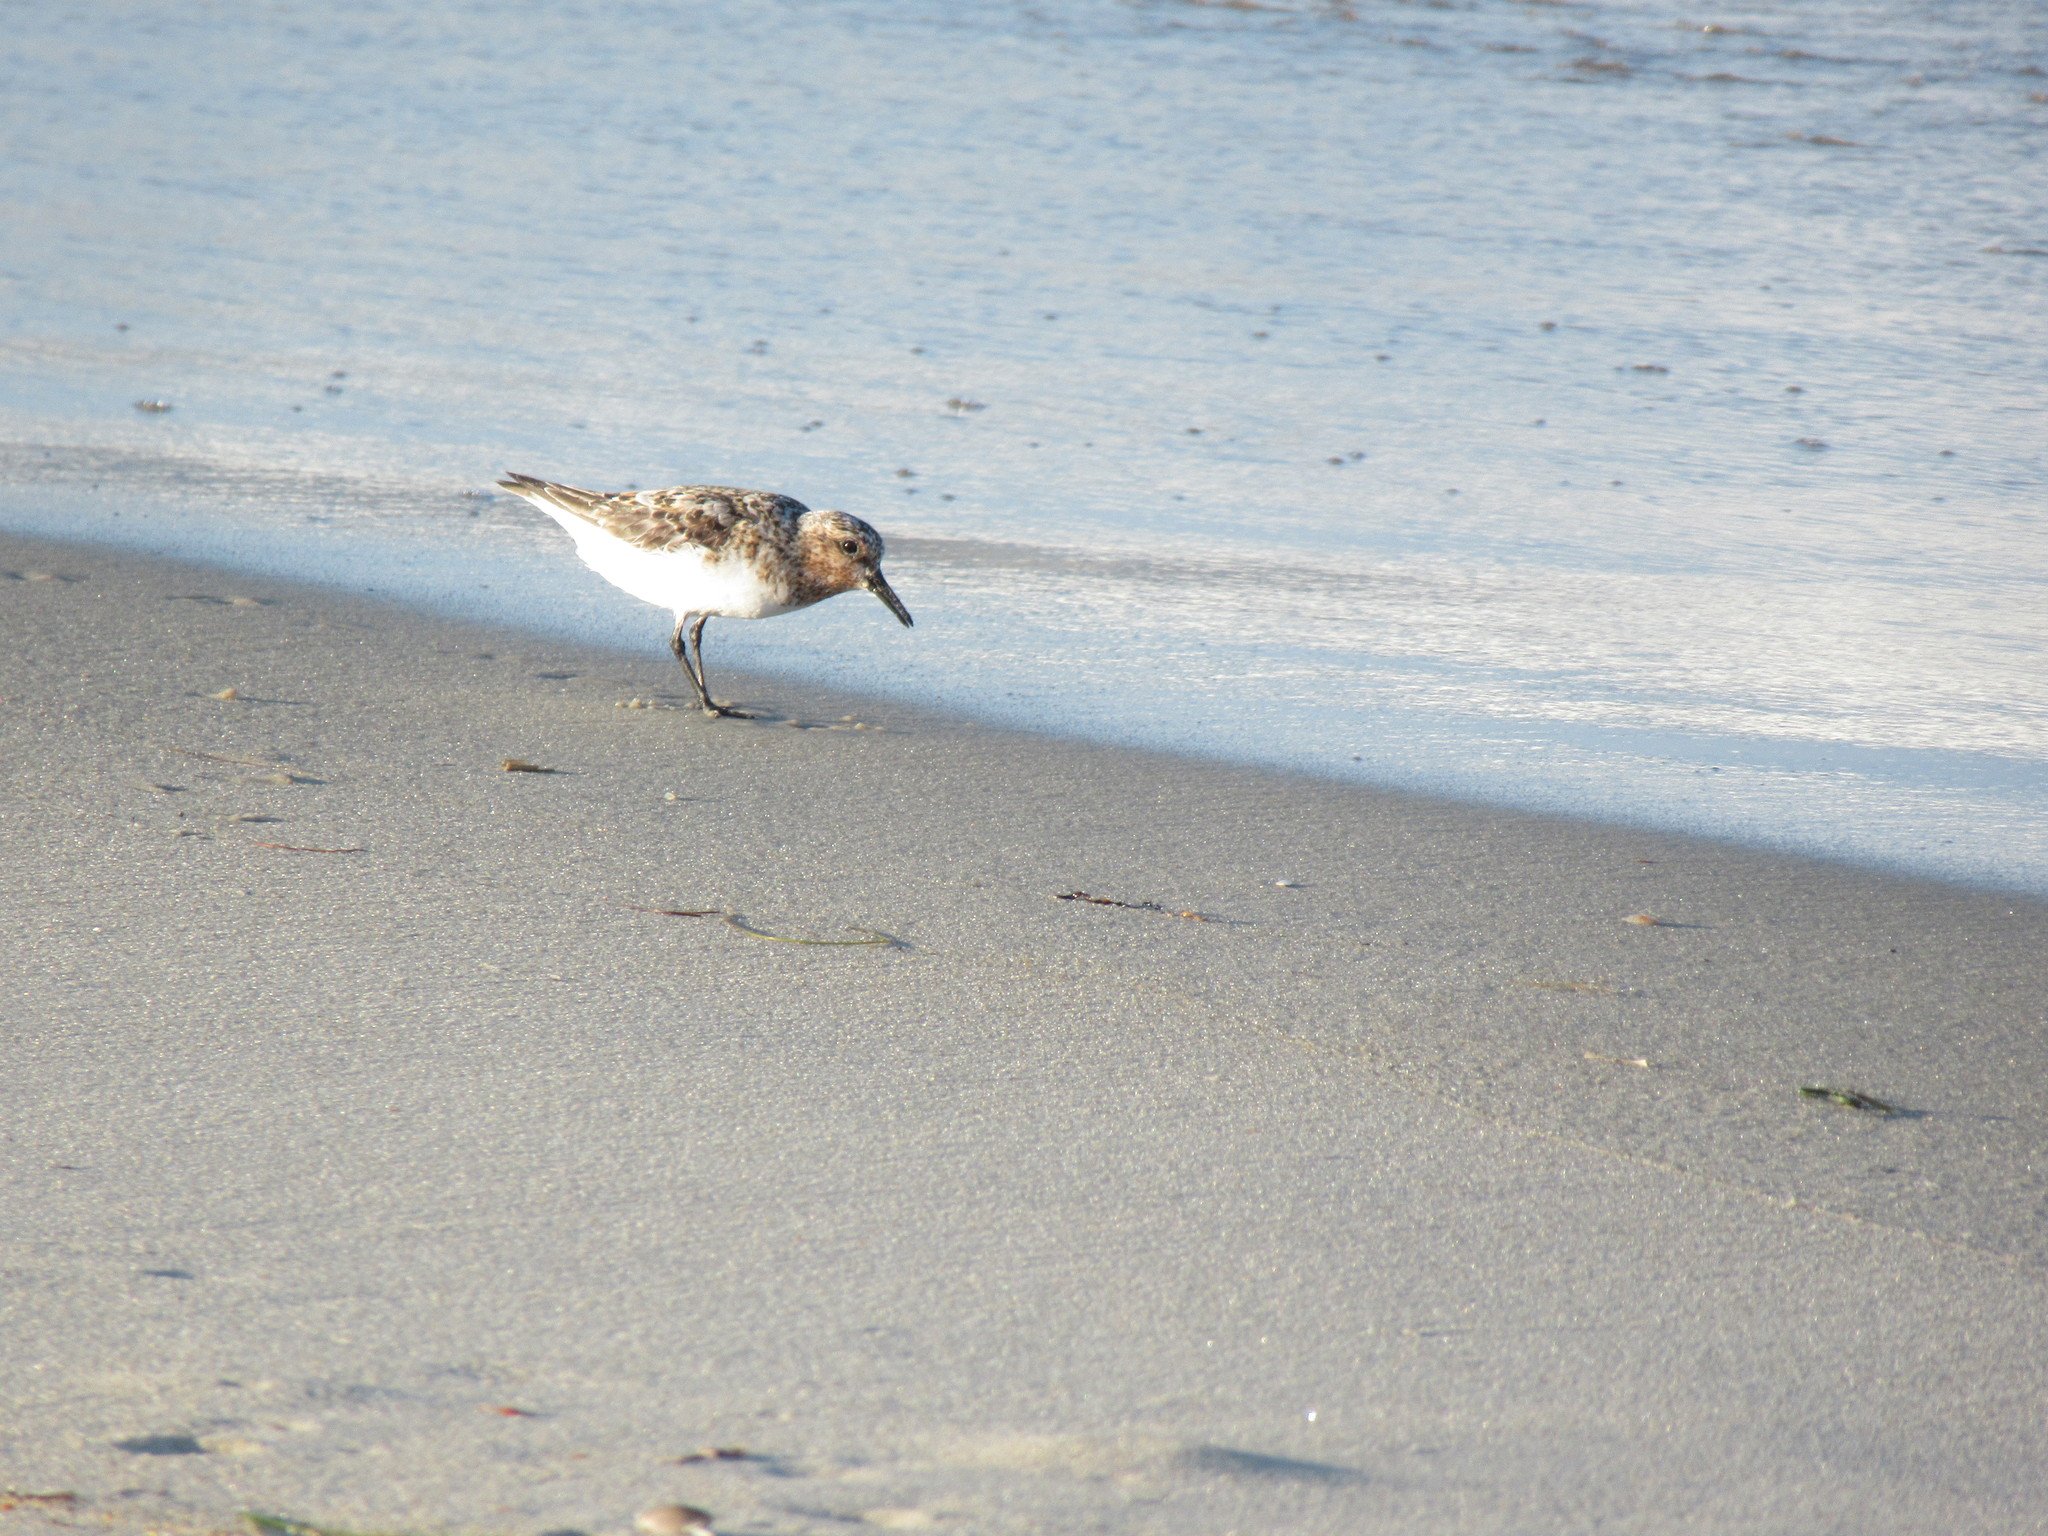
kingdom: Animalia
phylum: Chordata
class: Aves
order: Charadriiformes
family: Scolopacidae
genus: Calidris
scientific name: Calidris alba
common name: Sanderling
